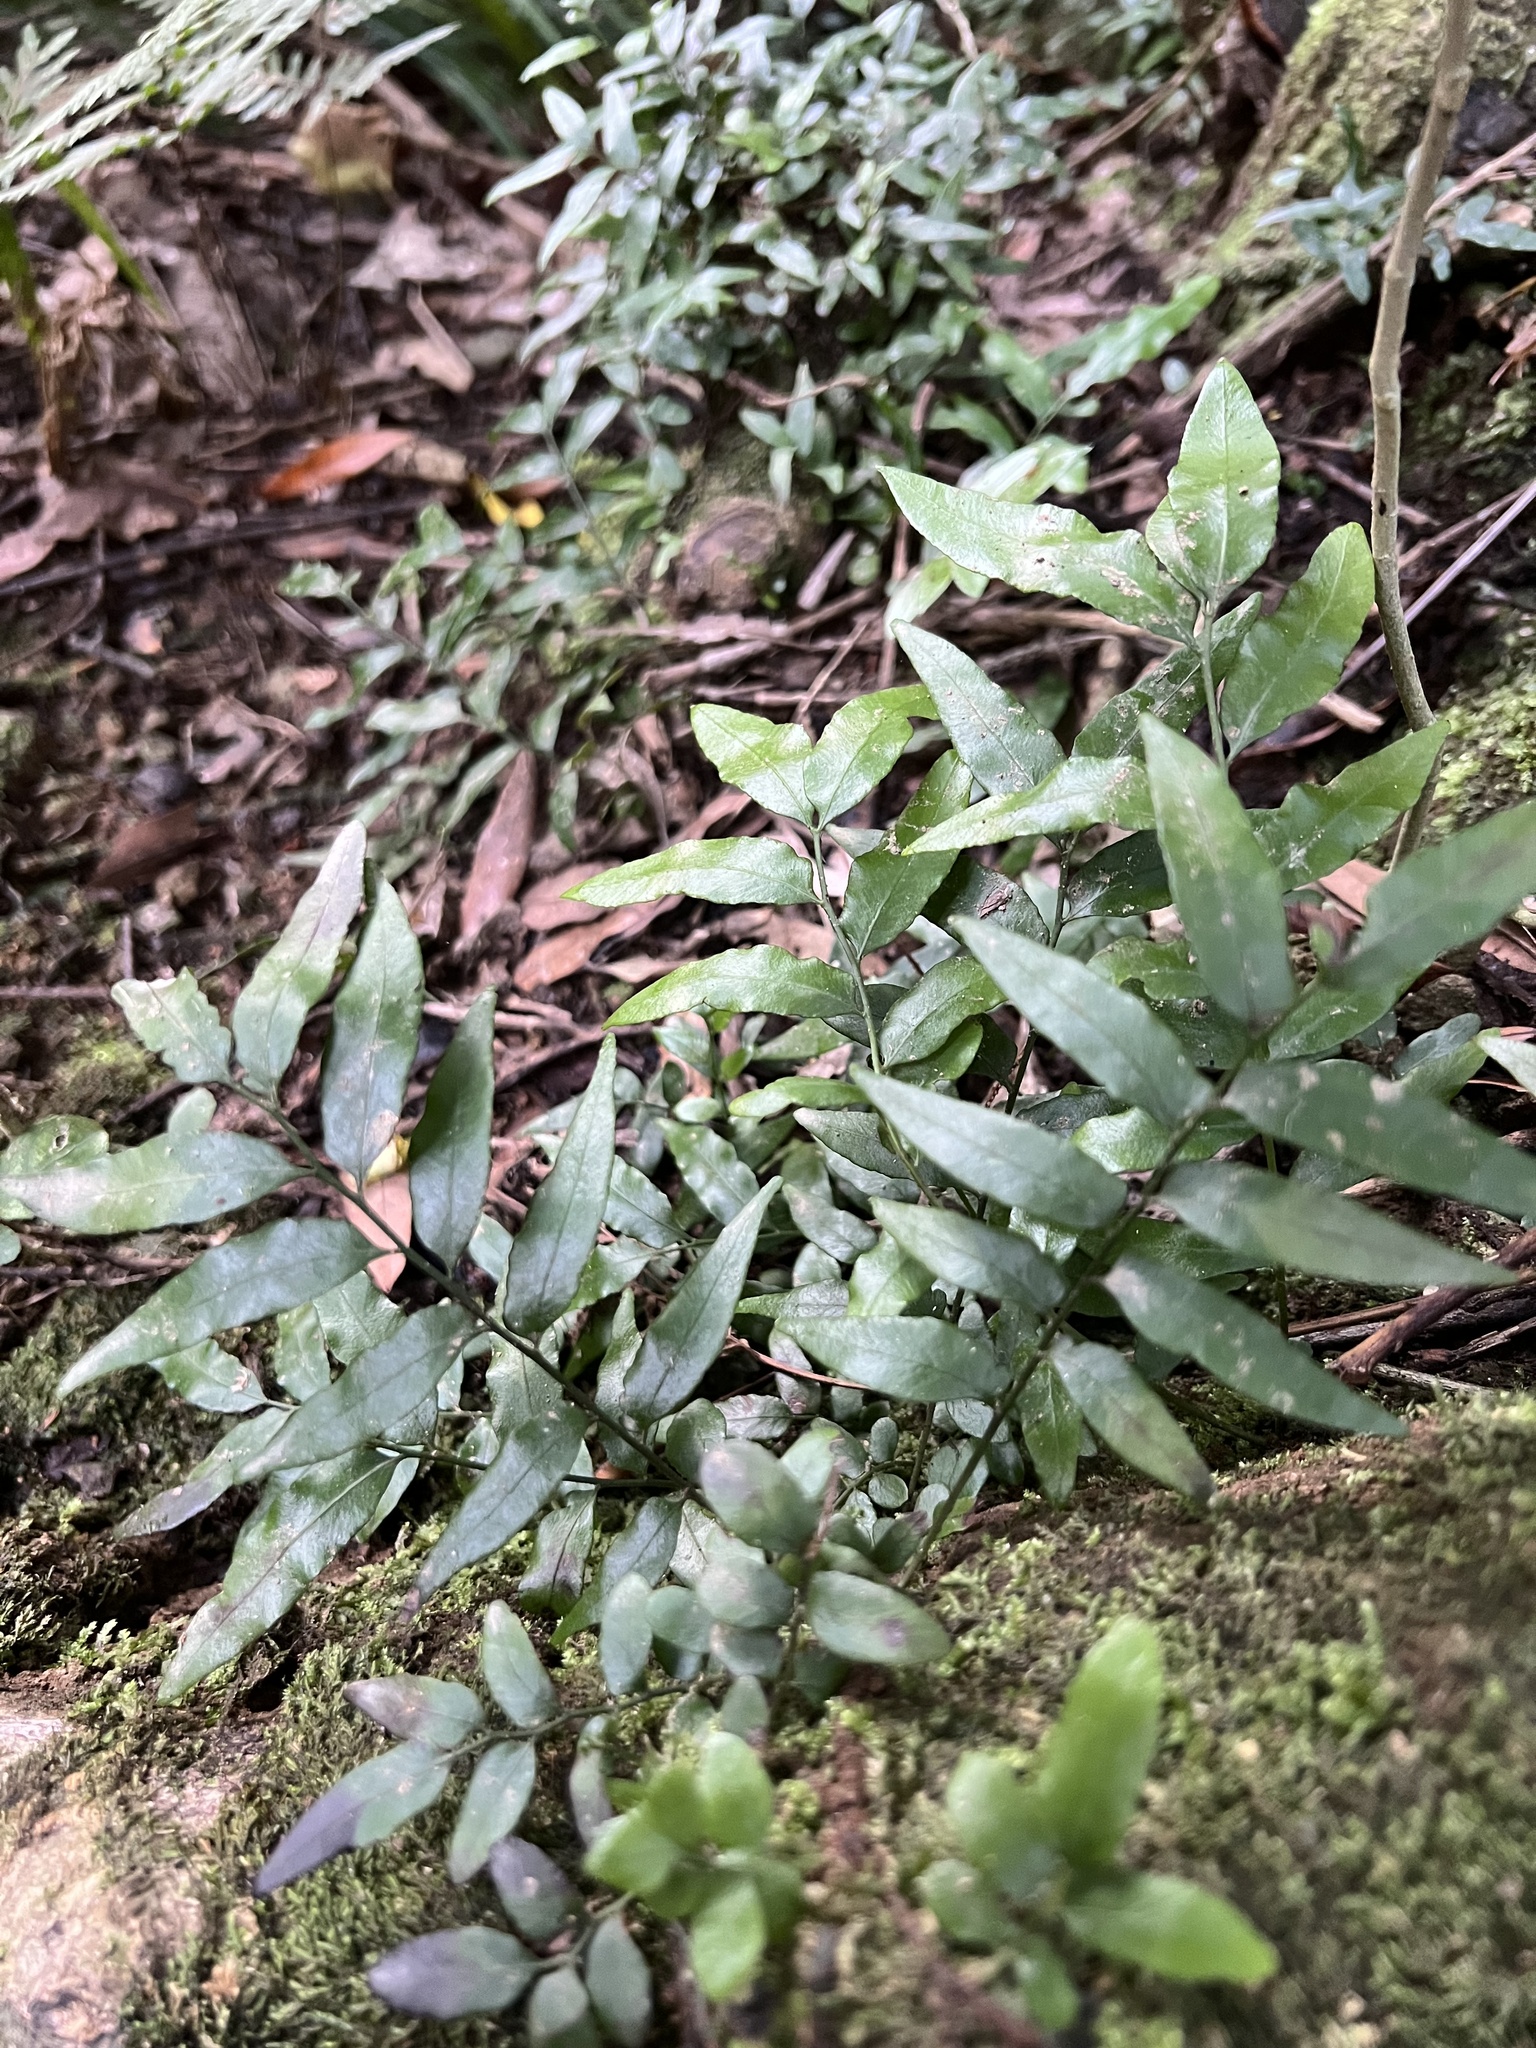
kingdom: Plantae
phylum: Tracheophyta
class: Polypodiopsida
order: Polypodiales
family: Tectariaceae
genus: Arthropteris
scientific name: Arthropteris tenella
